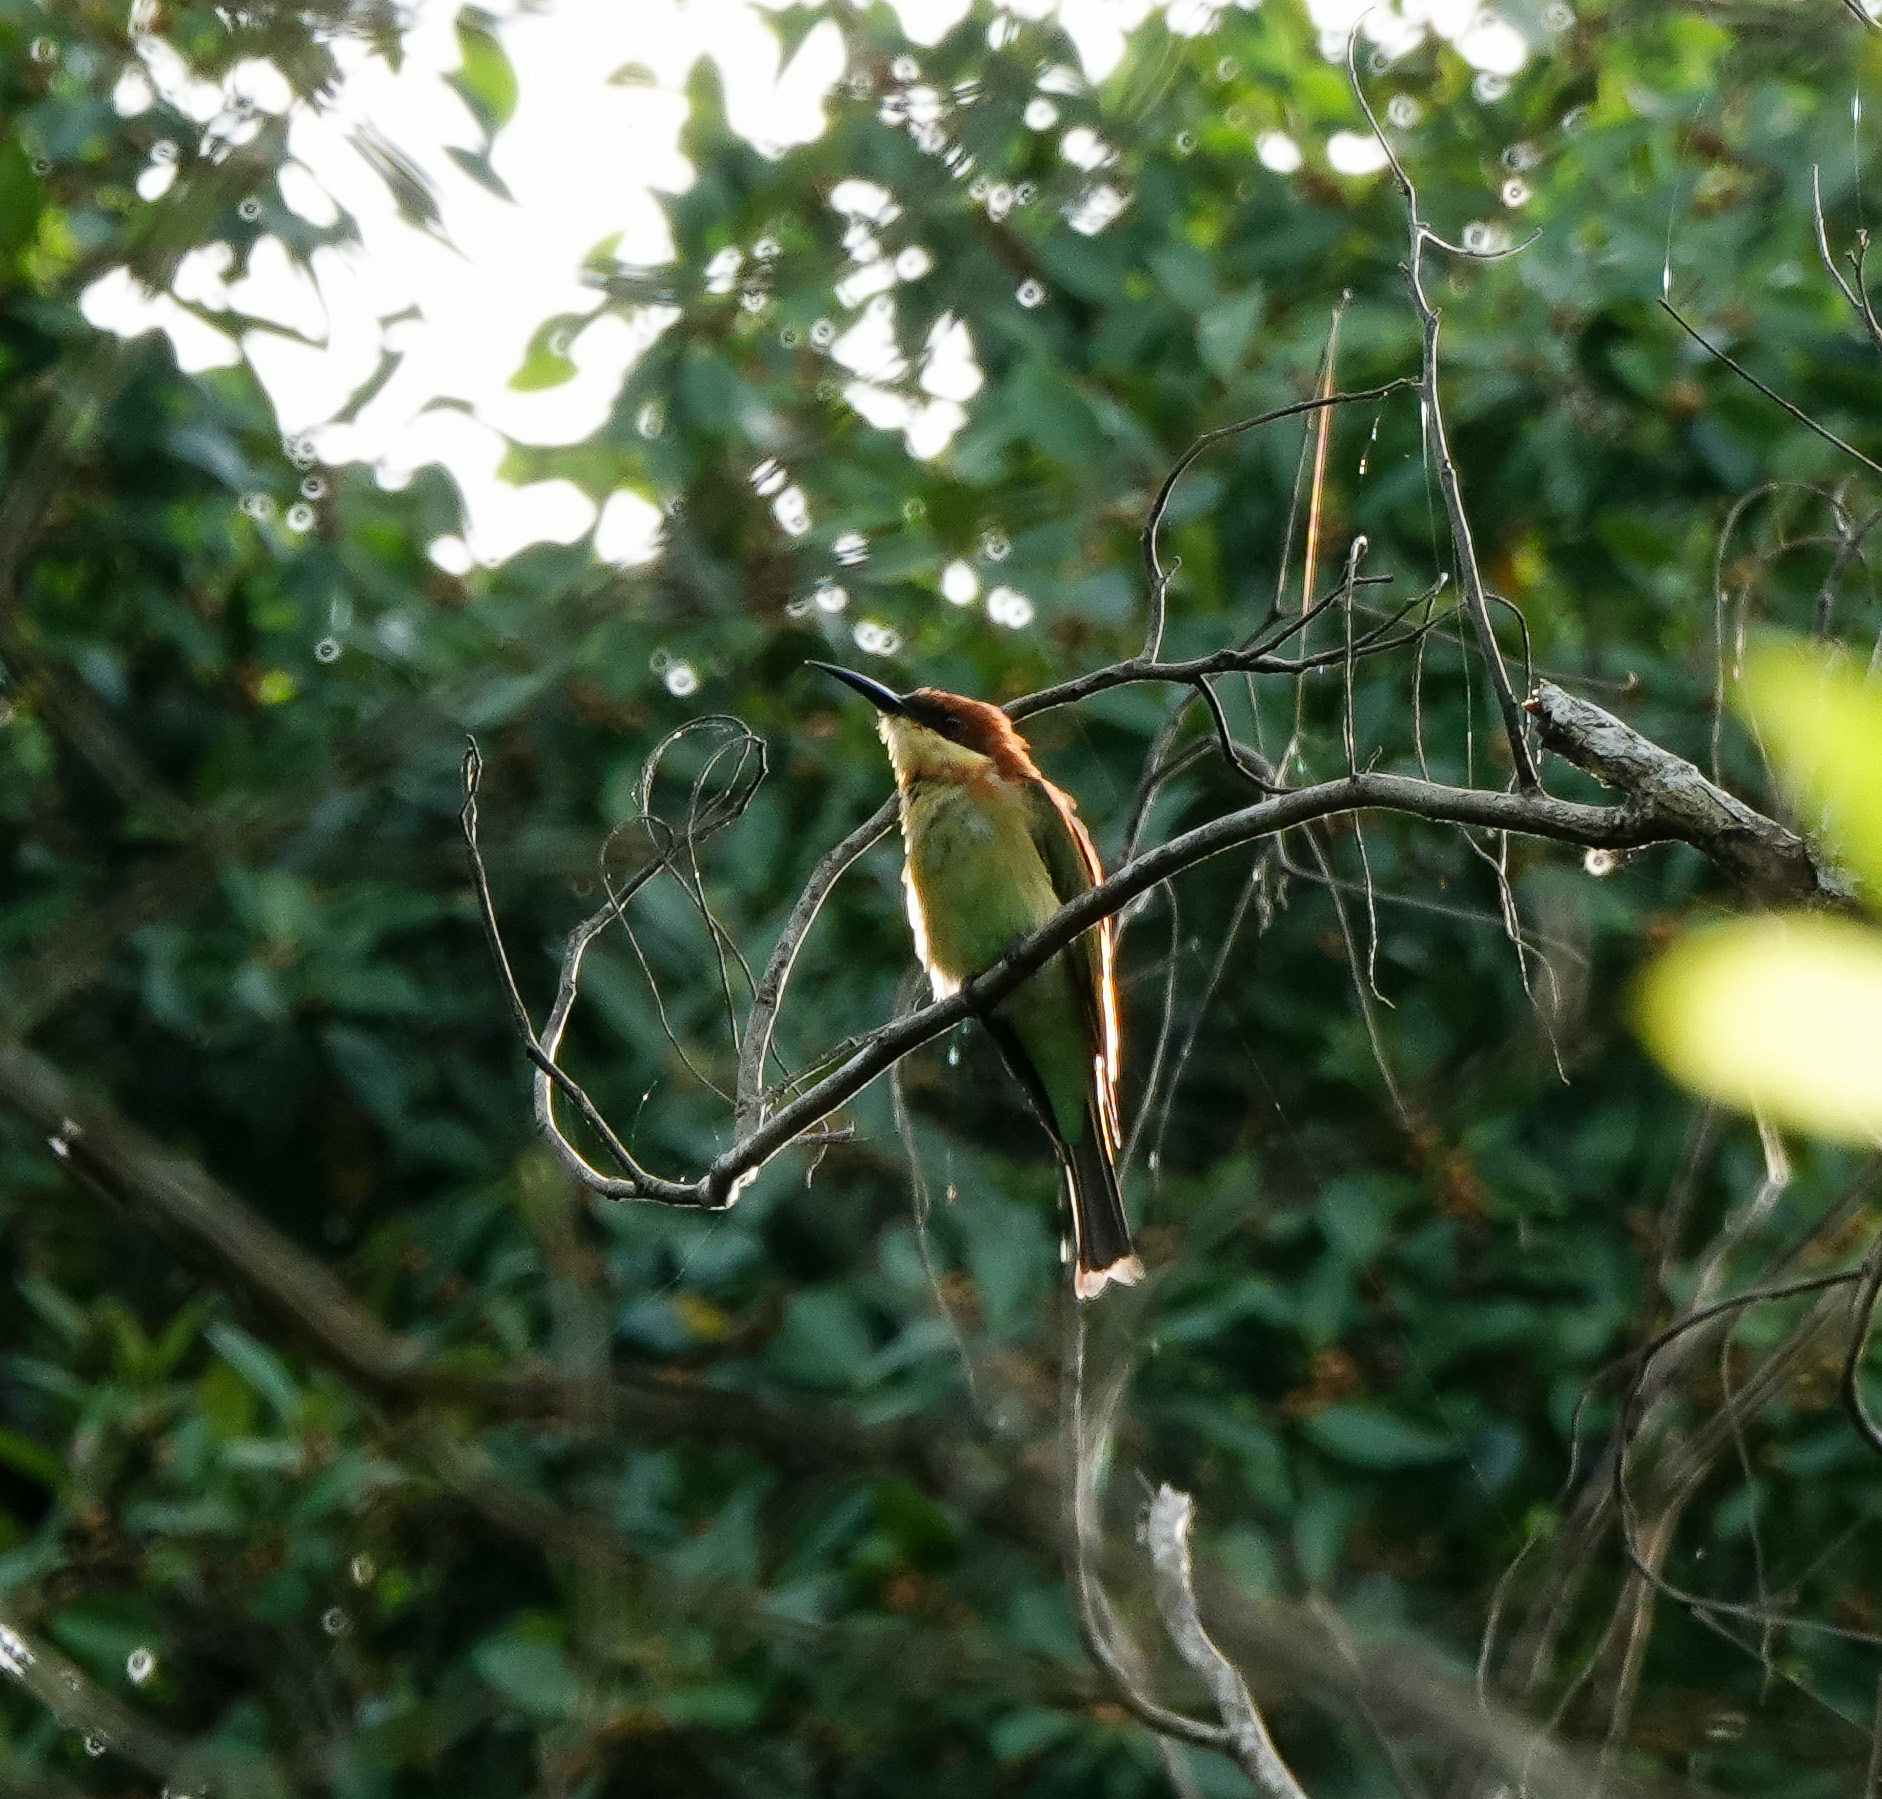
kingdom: Animalia
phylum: Chordata
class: Aves
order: Coraciiformes
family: Meropidae
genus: Merops
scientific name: Merops leschenaulti
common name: Chestnut-headed bee-eater
